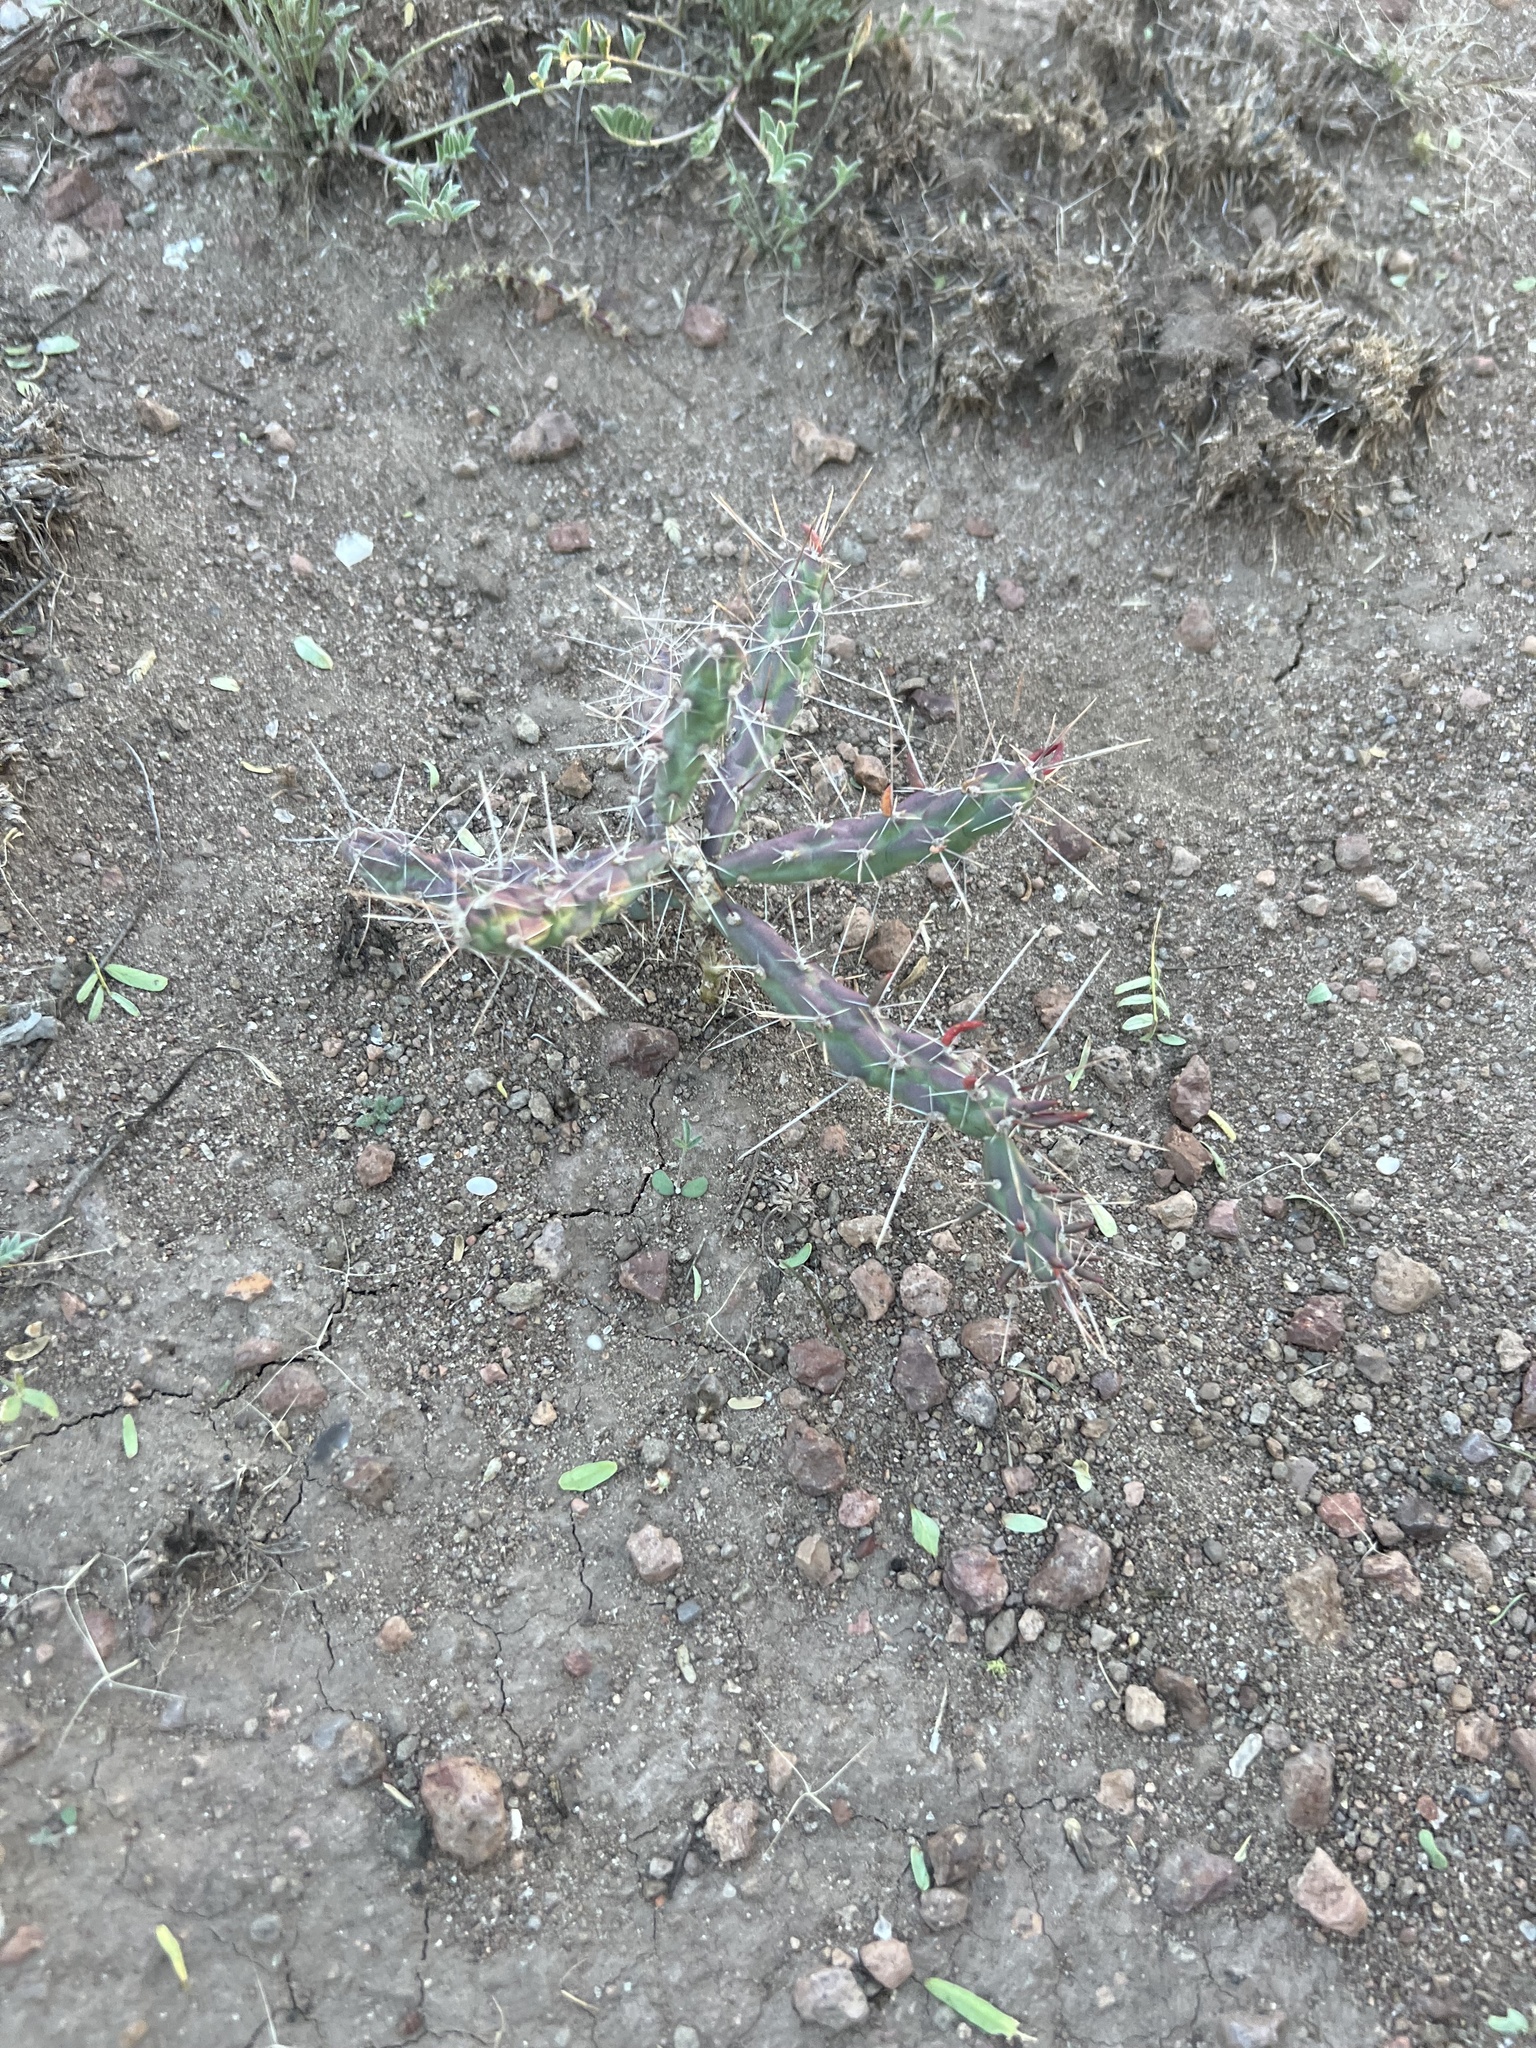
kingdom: Plantae
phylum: Tracheophyta
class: Magnoliopsida
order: Caryophyllales
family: Cactaceae
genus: Cylindropuntia
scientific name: Cylindropuntia davisii
